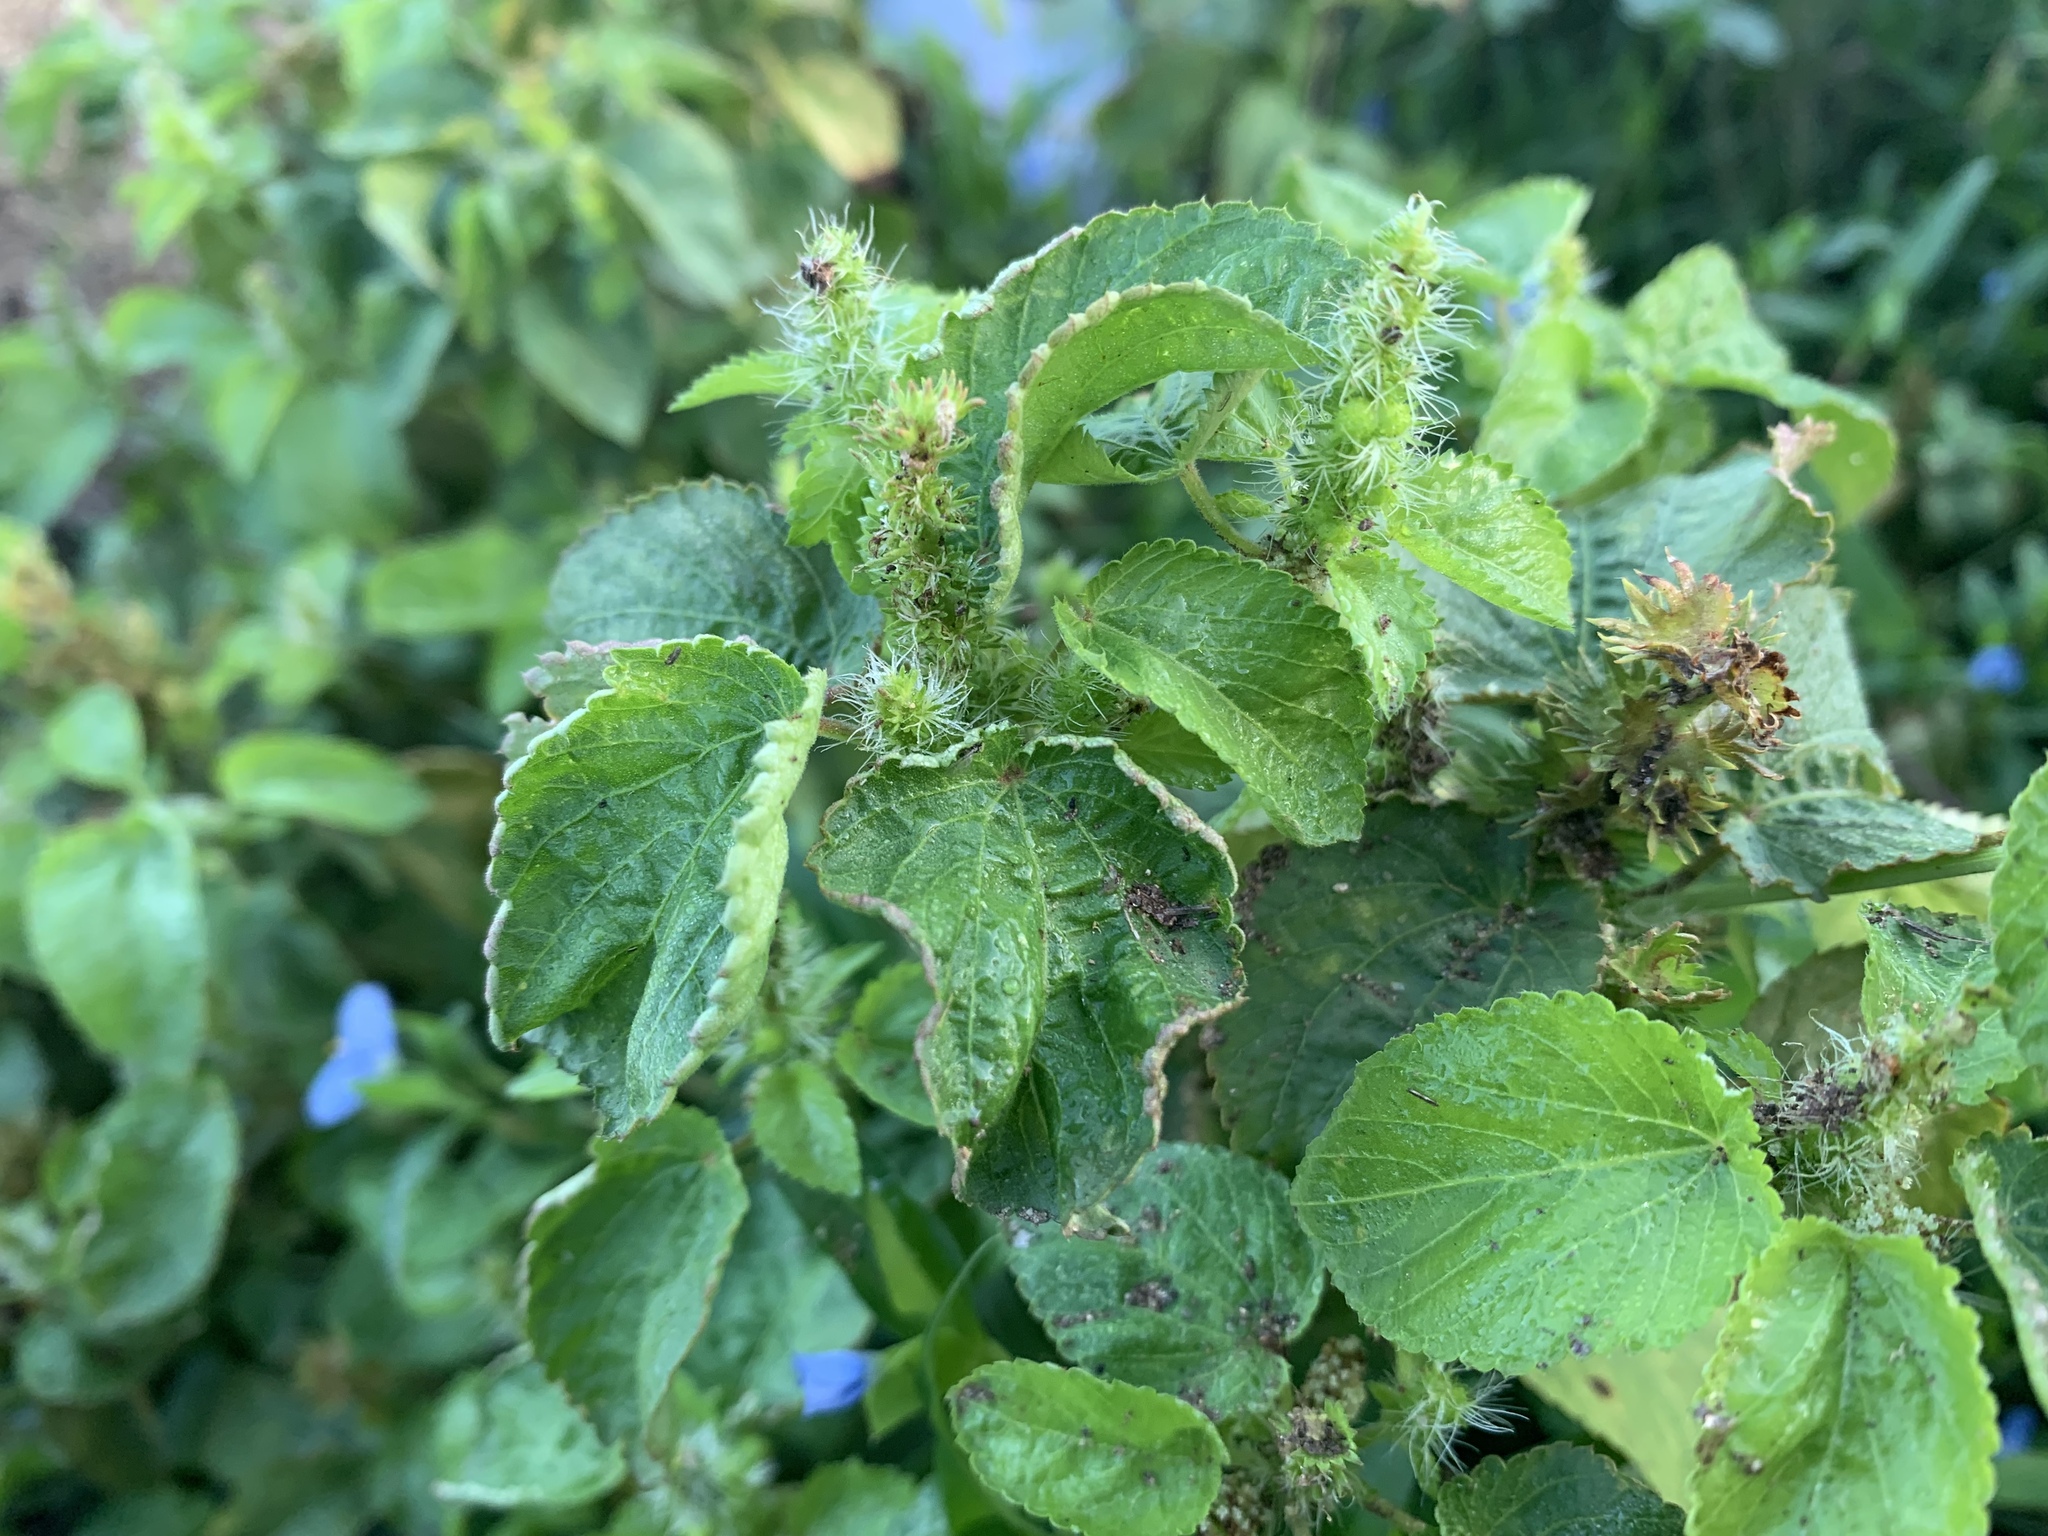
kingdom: Plantae
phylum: Tracheophyta
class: Magnoliopsida
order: Malpighiales
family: Euphorbiaceae
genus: Acalypha
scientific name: Acalypha ostryifolia
